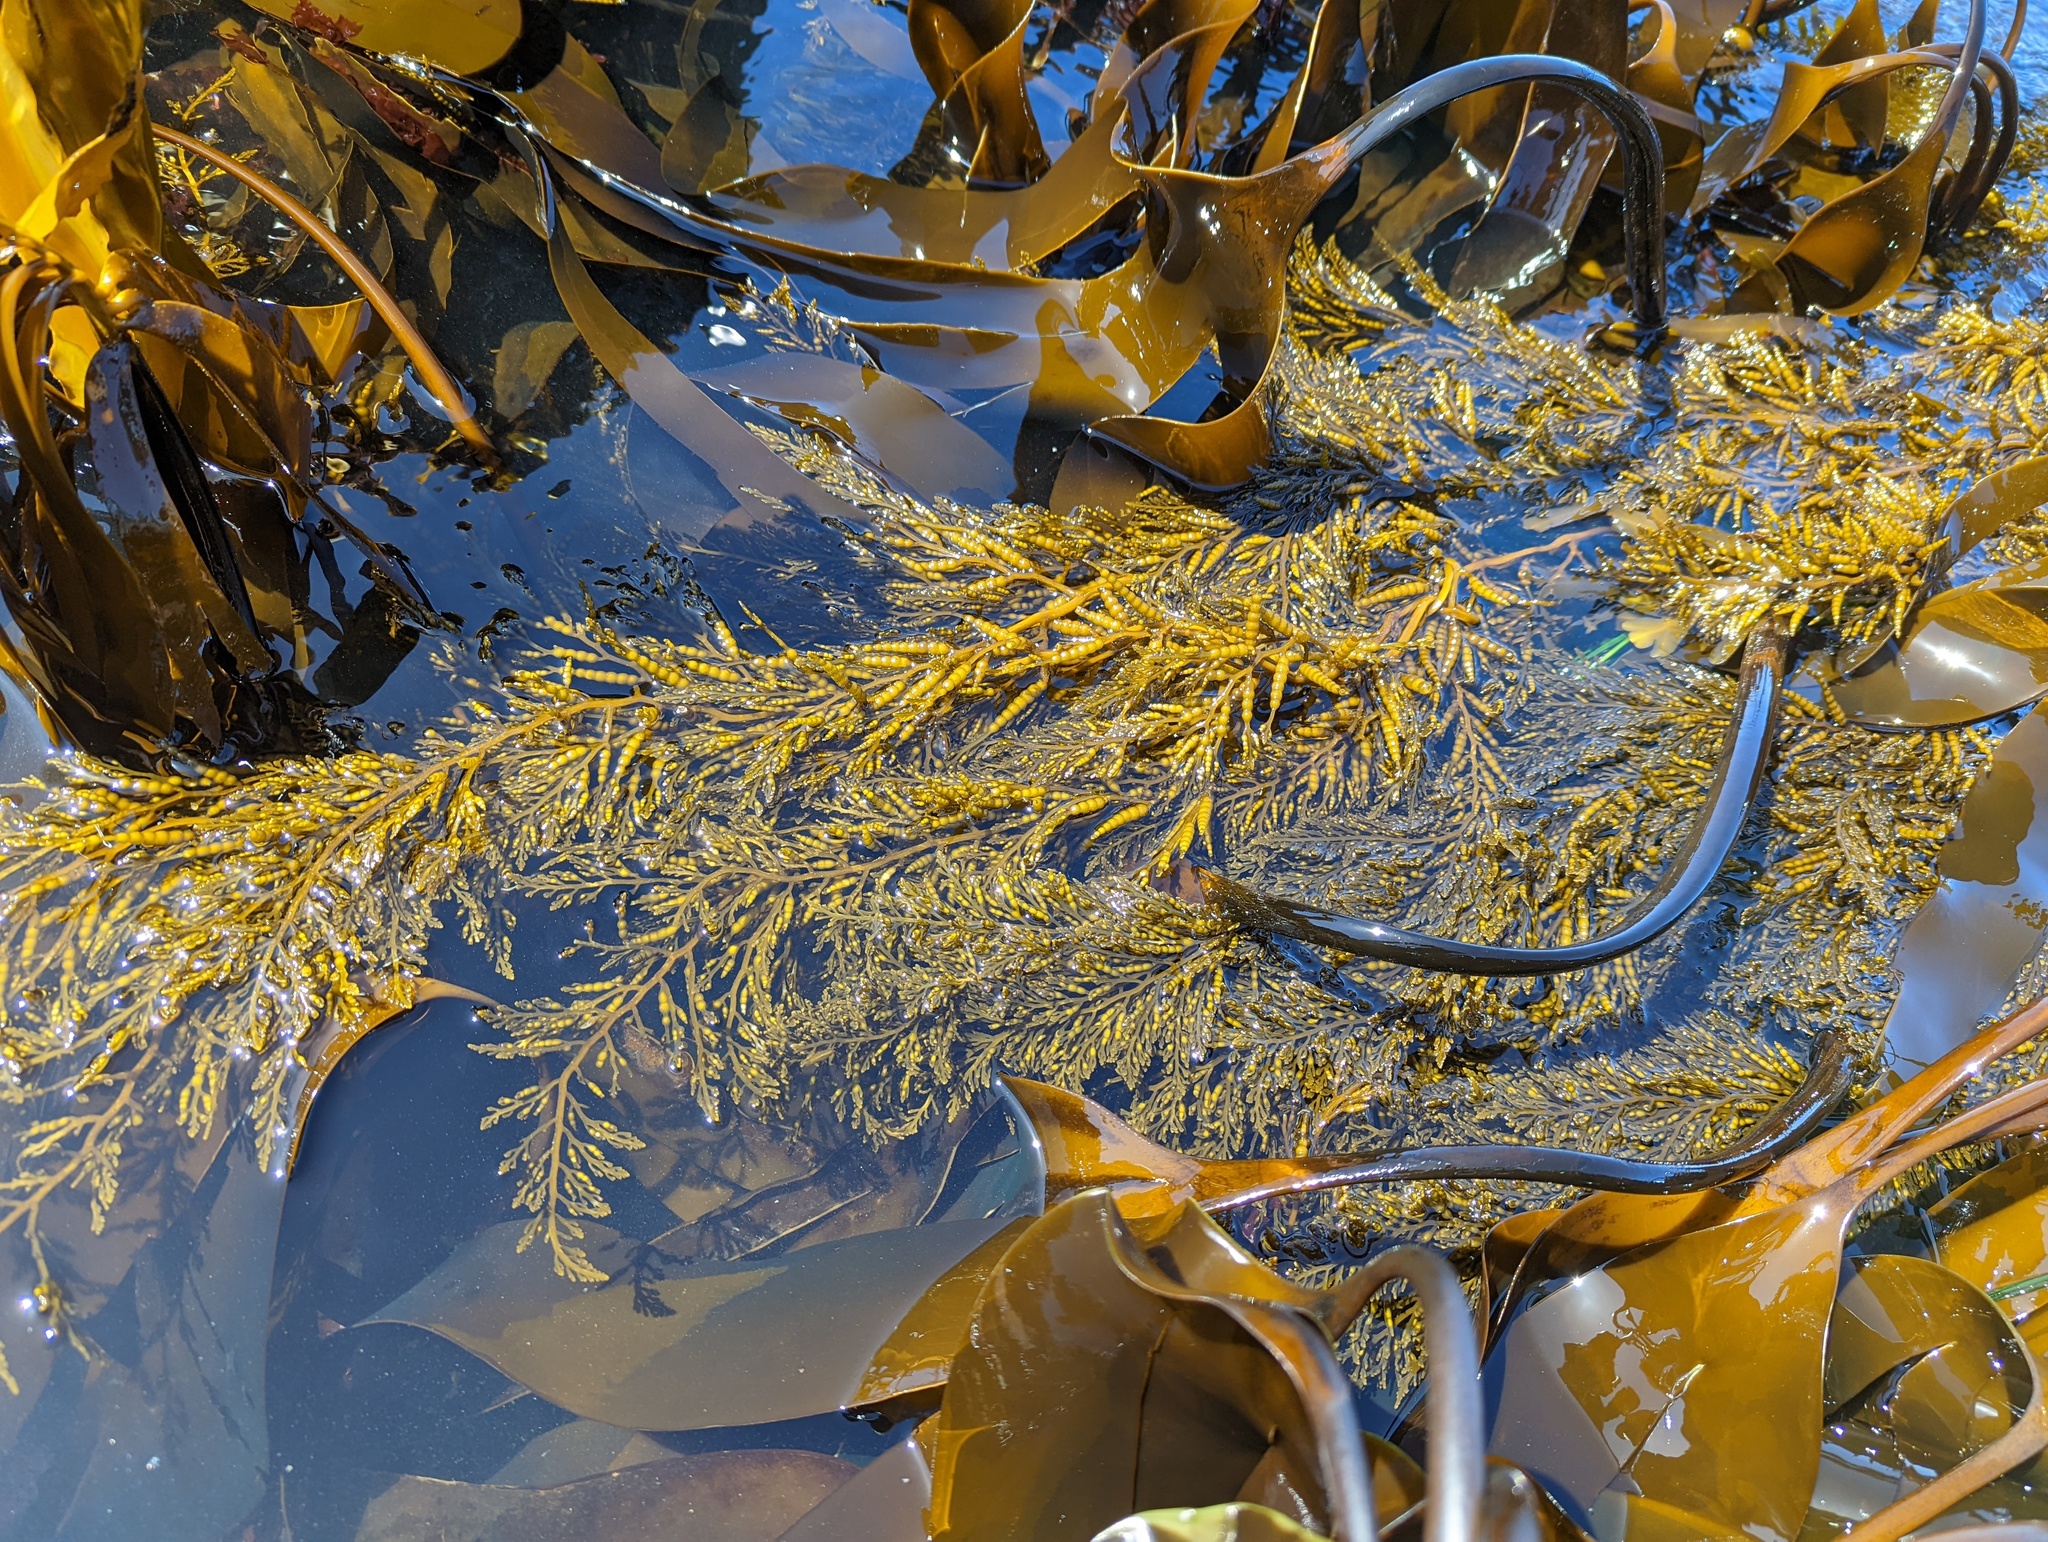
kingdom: Chromista
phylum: Ochrophyta
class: Phaeophyceae
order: Fucales
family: Sargassaceae
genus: Stephanocystis
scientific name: Stephanocystis
